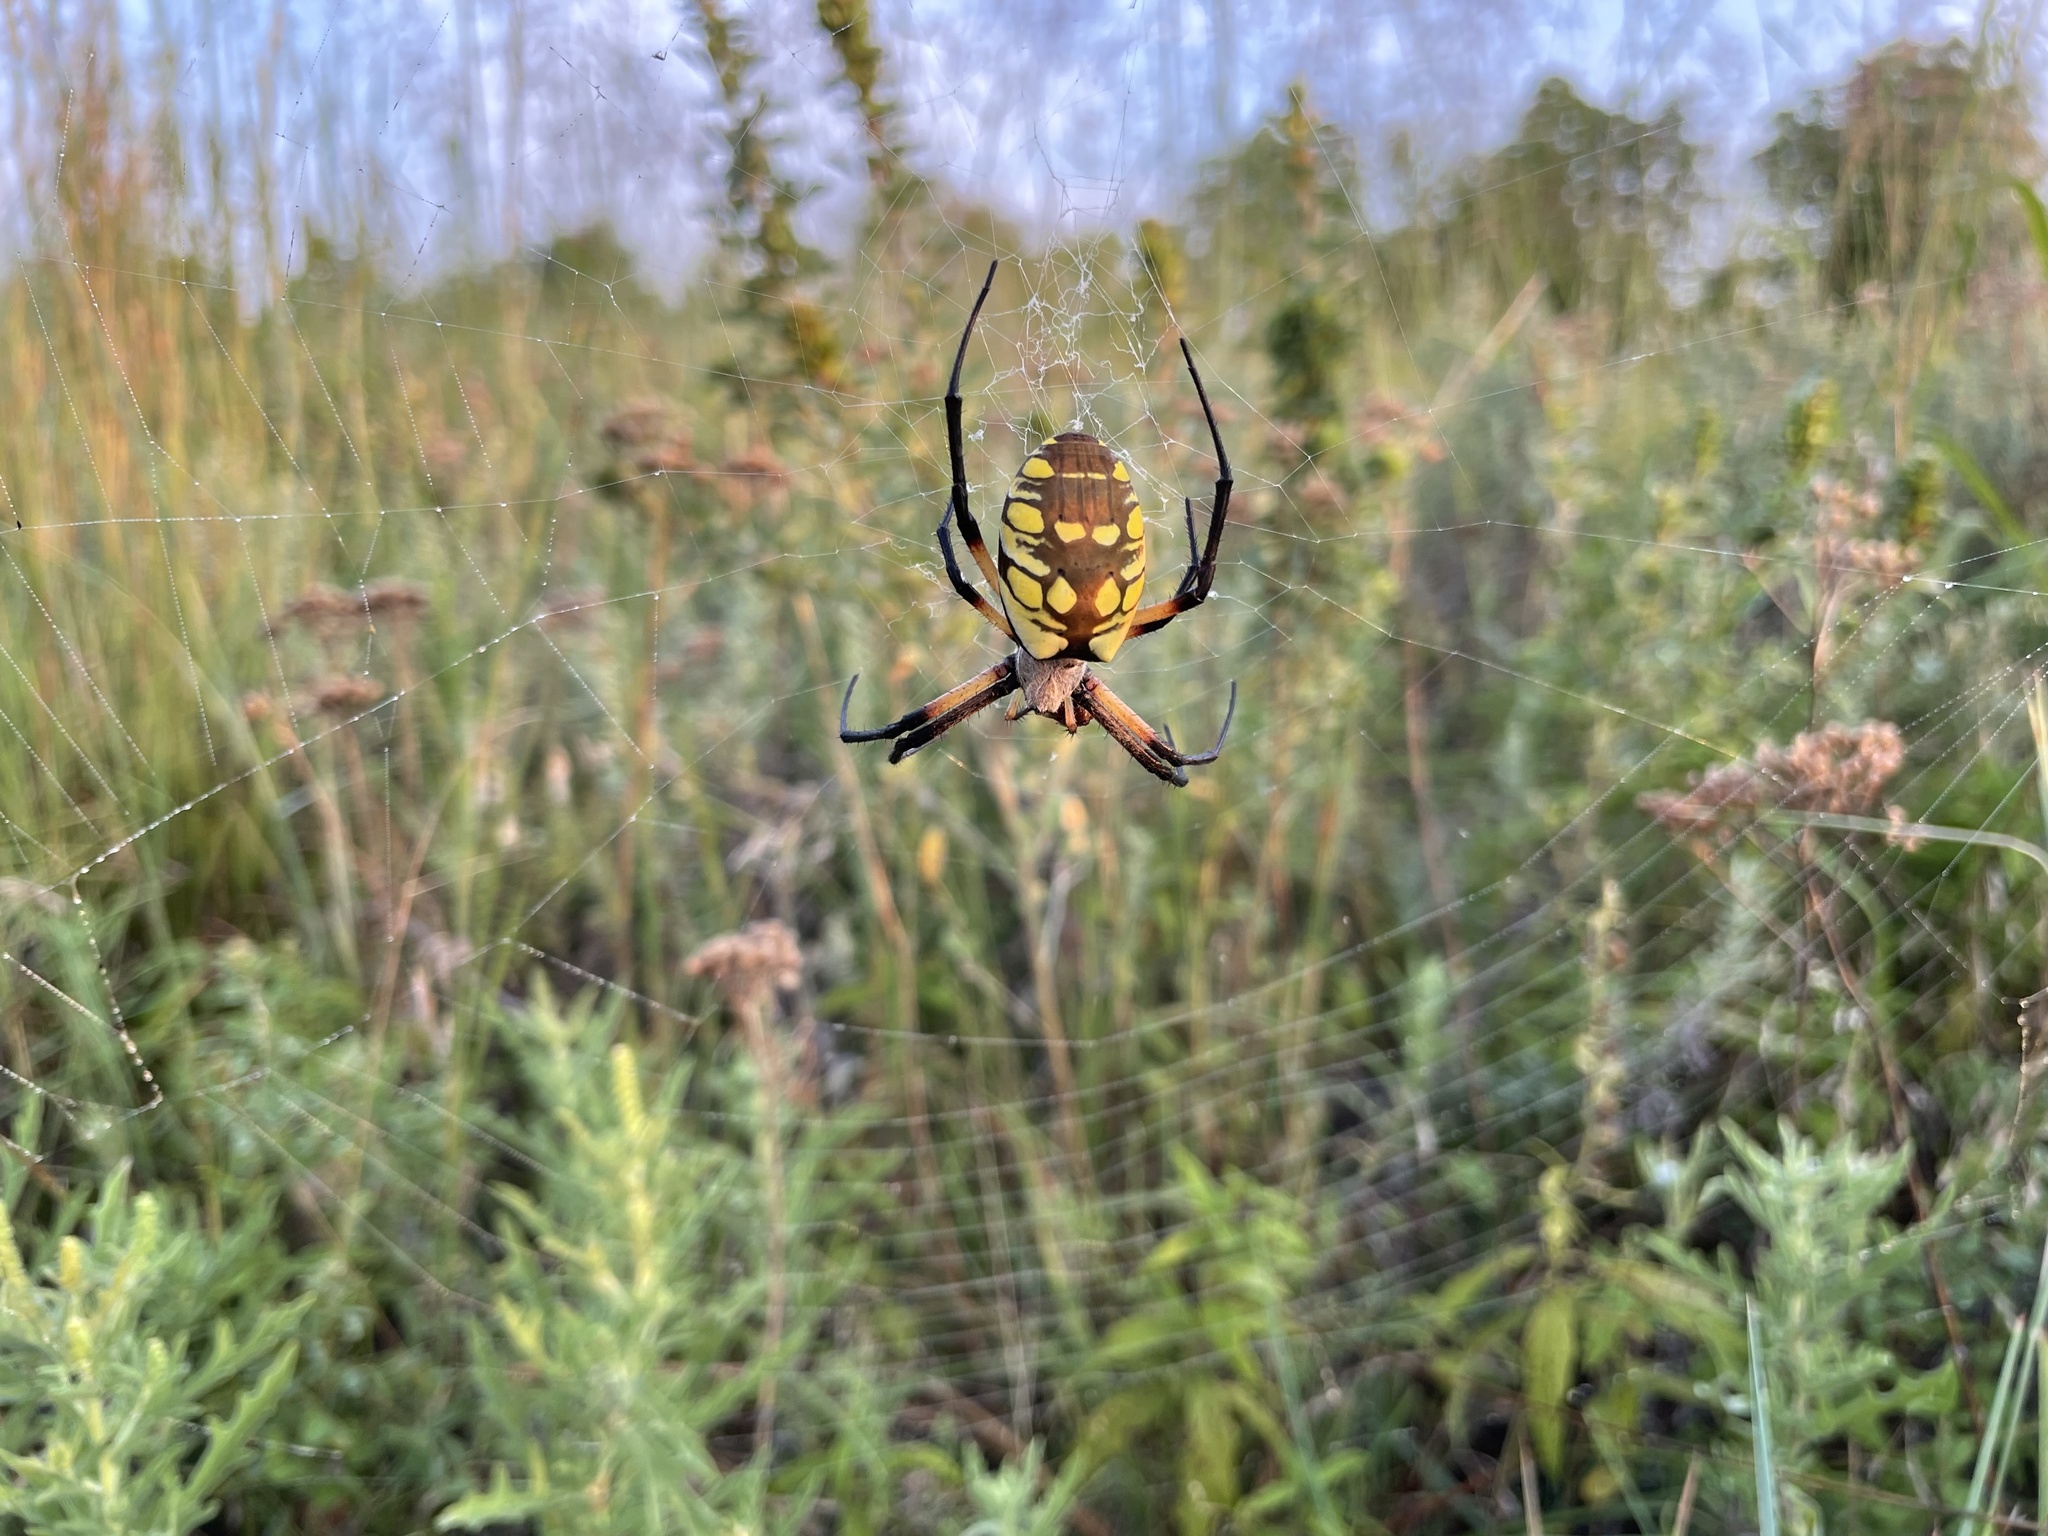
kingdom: Animalia
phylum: Arthropoda
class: Arachnida
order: Araneae
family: Araneidae
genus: Argiope
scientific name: Argiope aurantia
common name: Orb weavers
